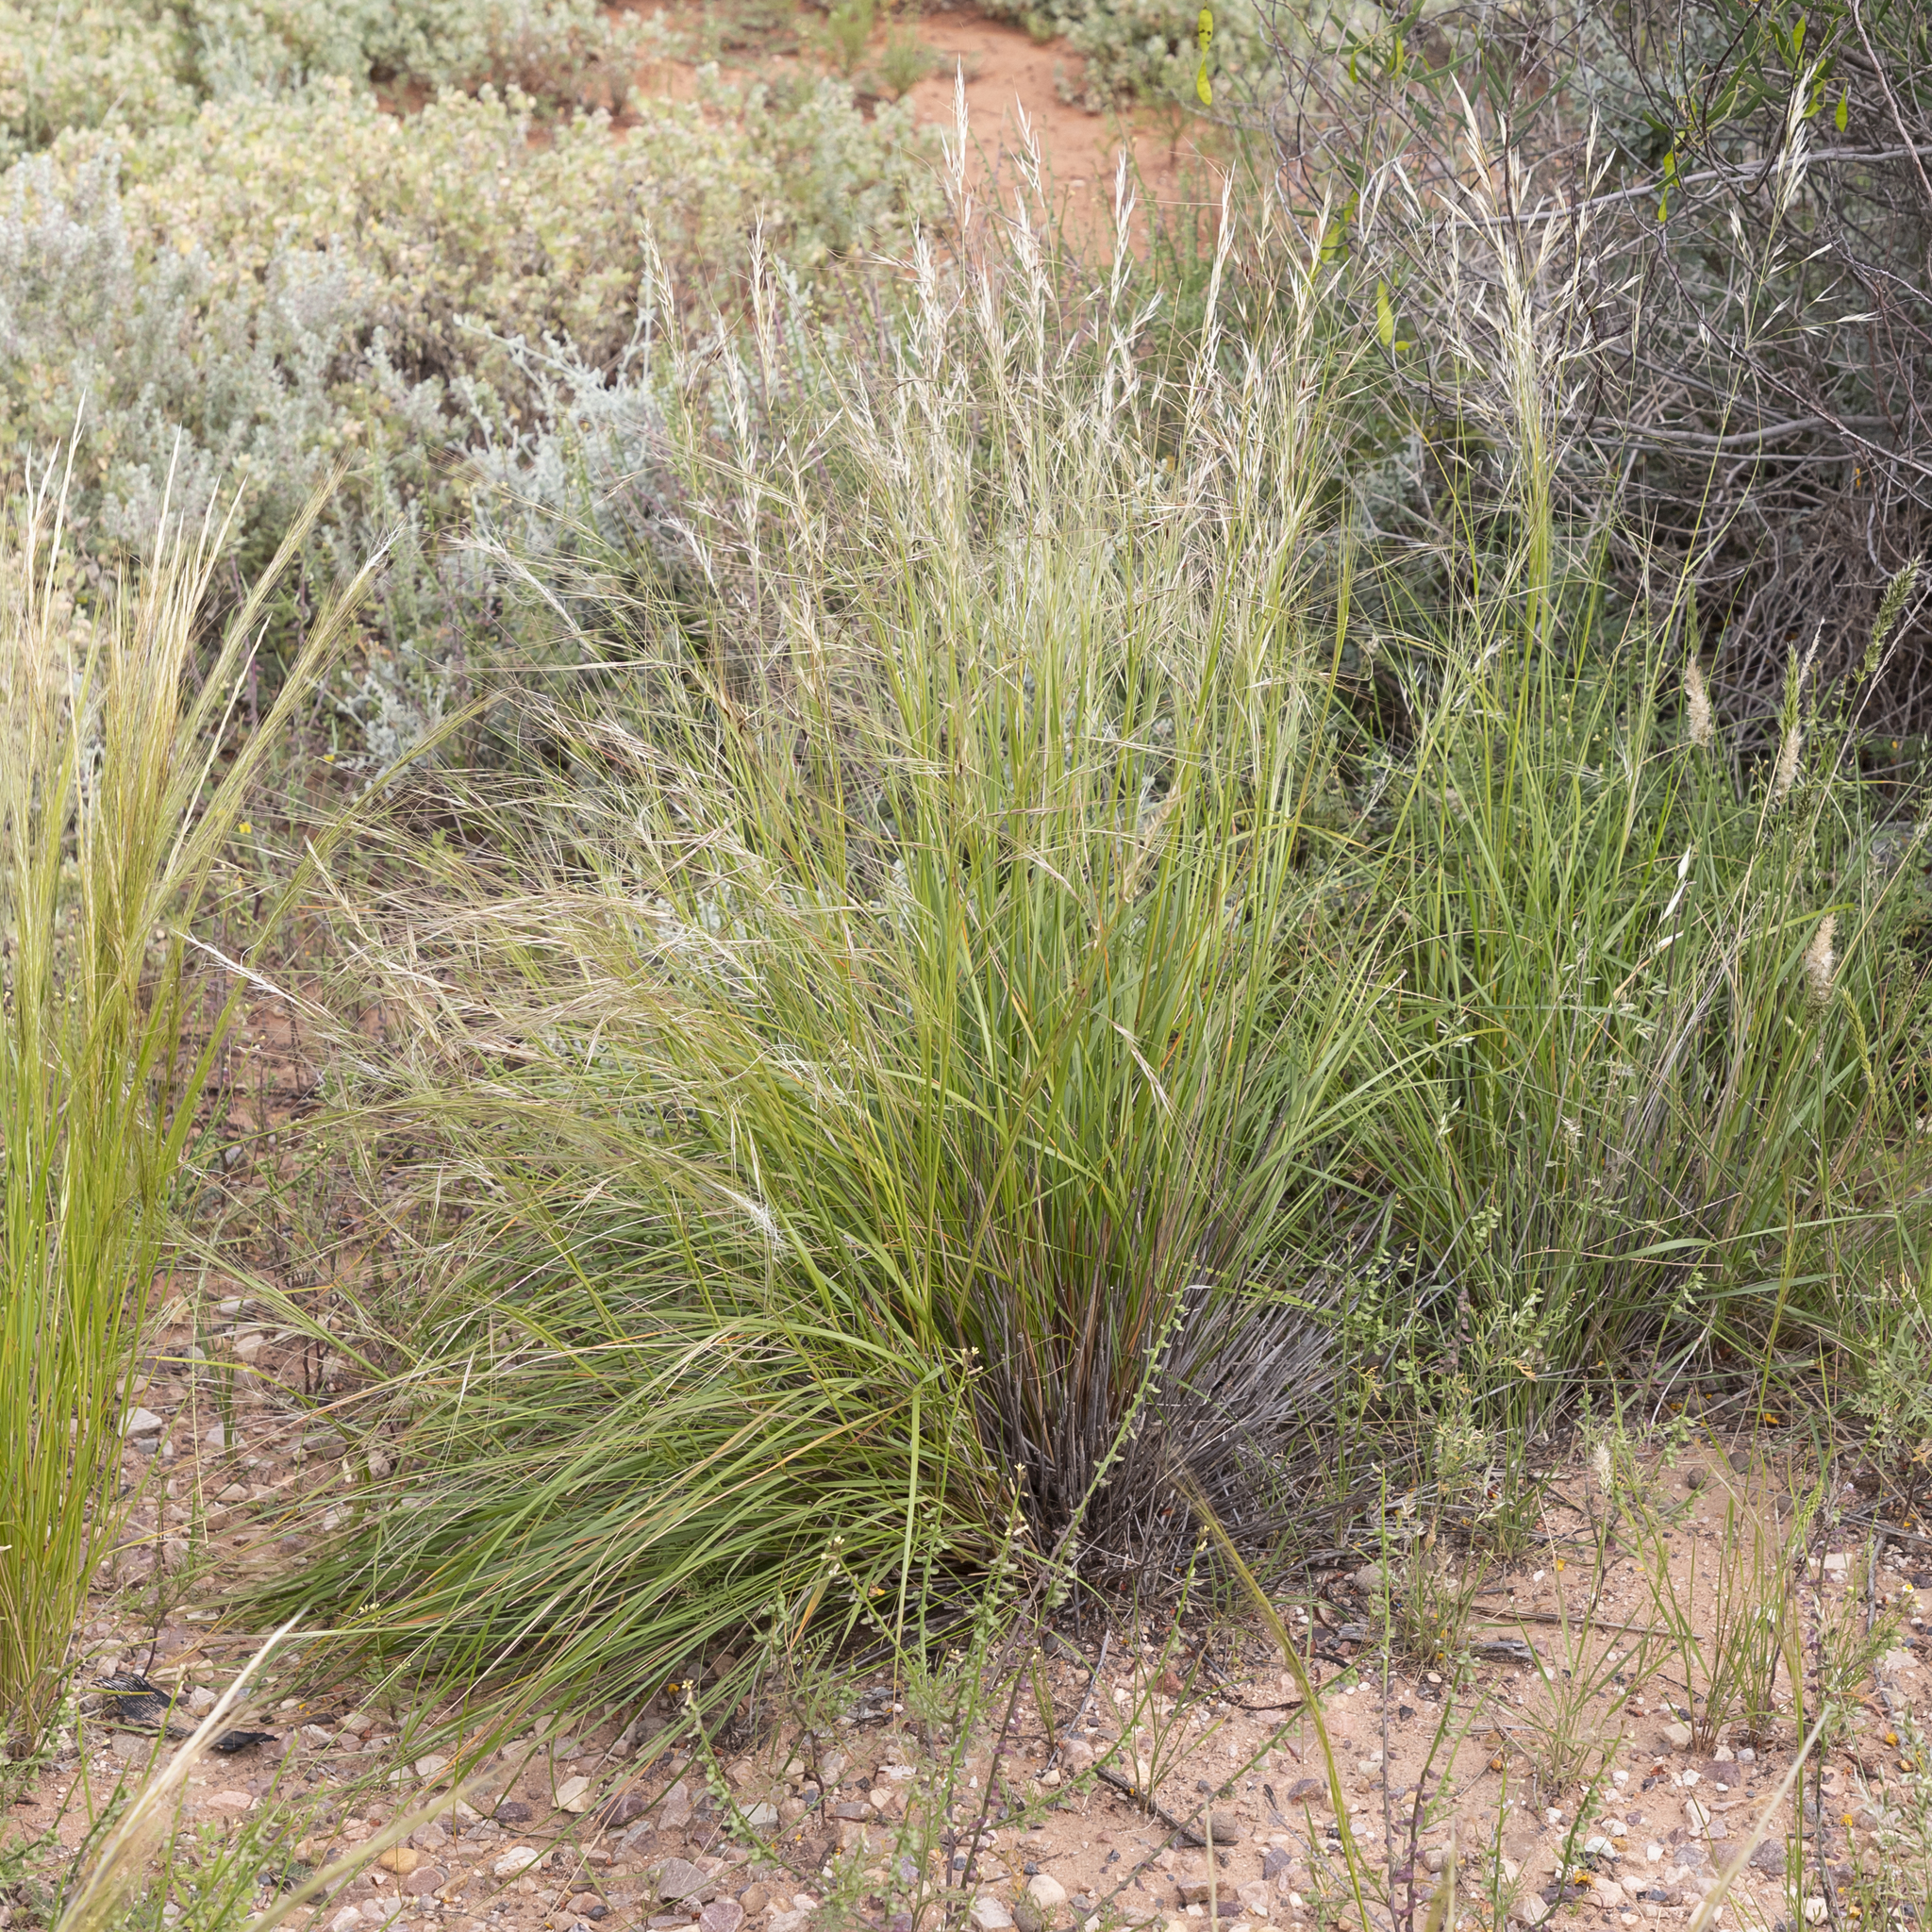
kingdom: Plantae
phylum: Tracheophyta
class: Liliopsida
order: Poales
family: Poaceae
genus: Austrostipa
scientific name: Austrostipa eremophila
